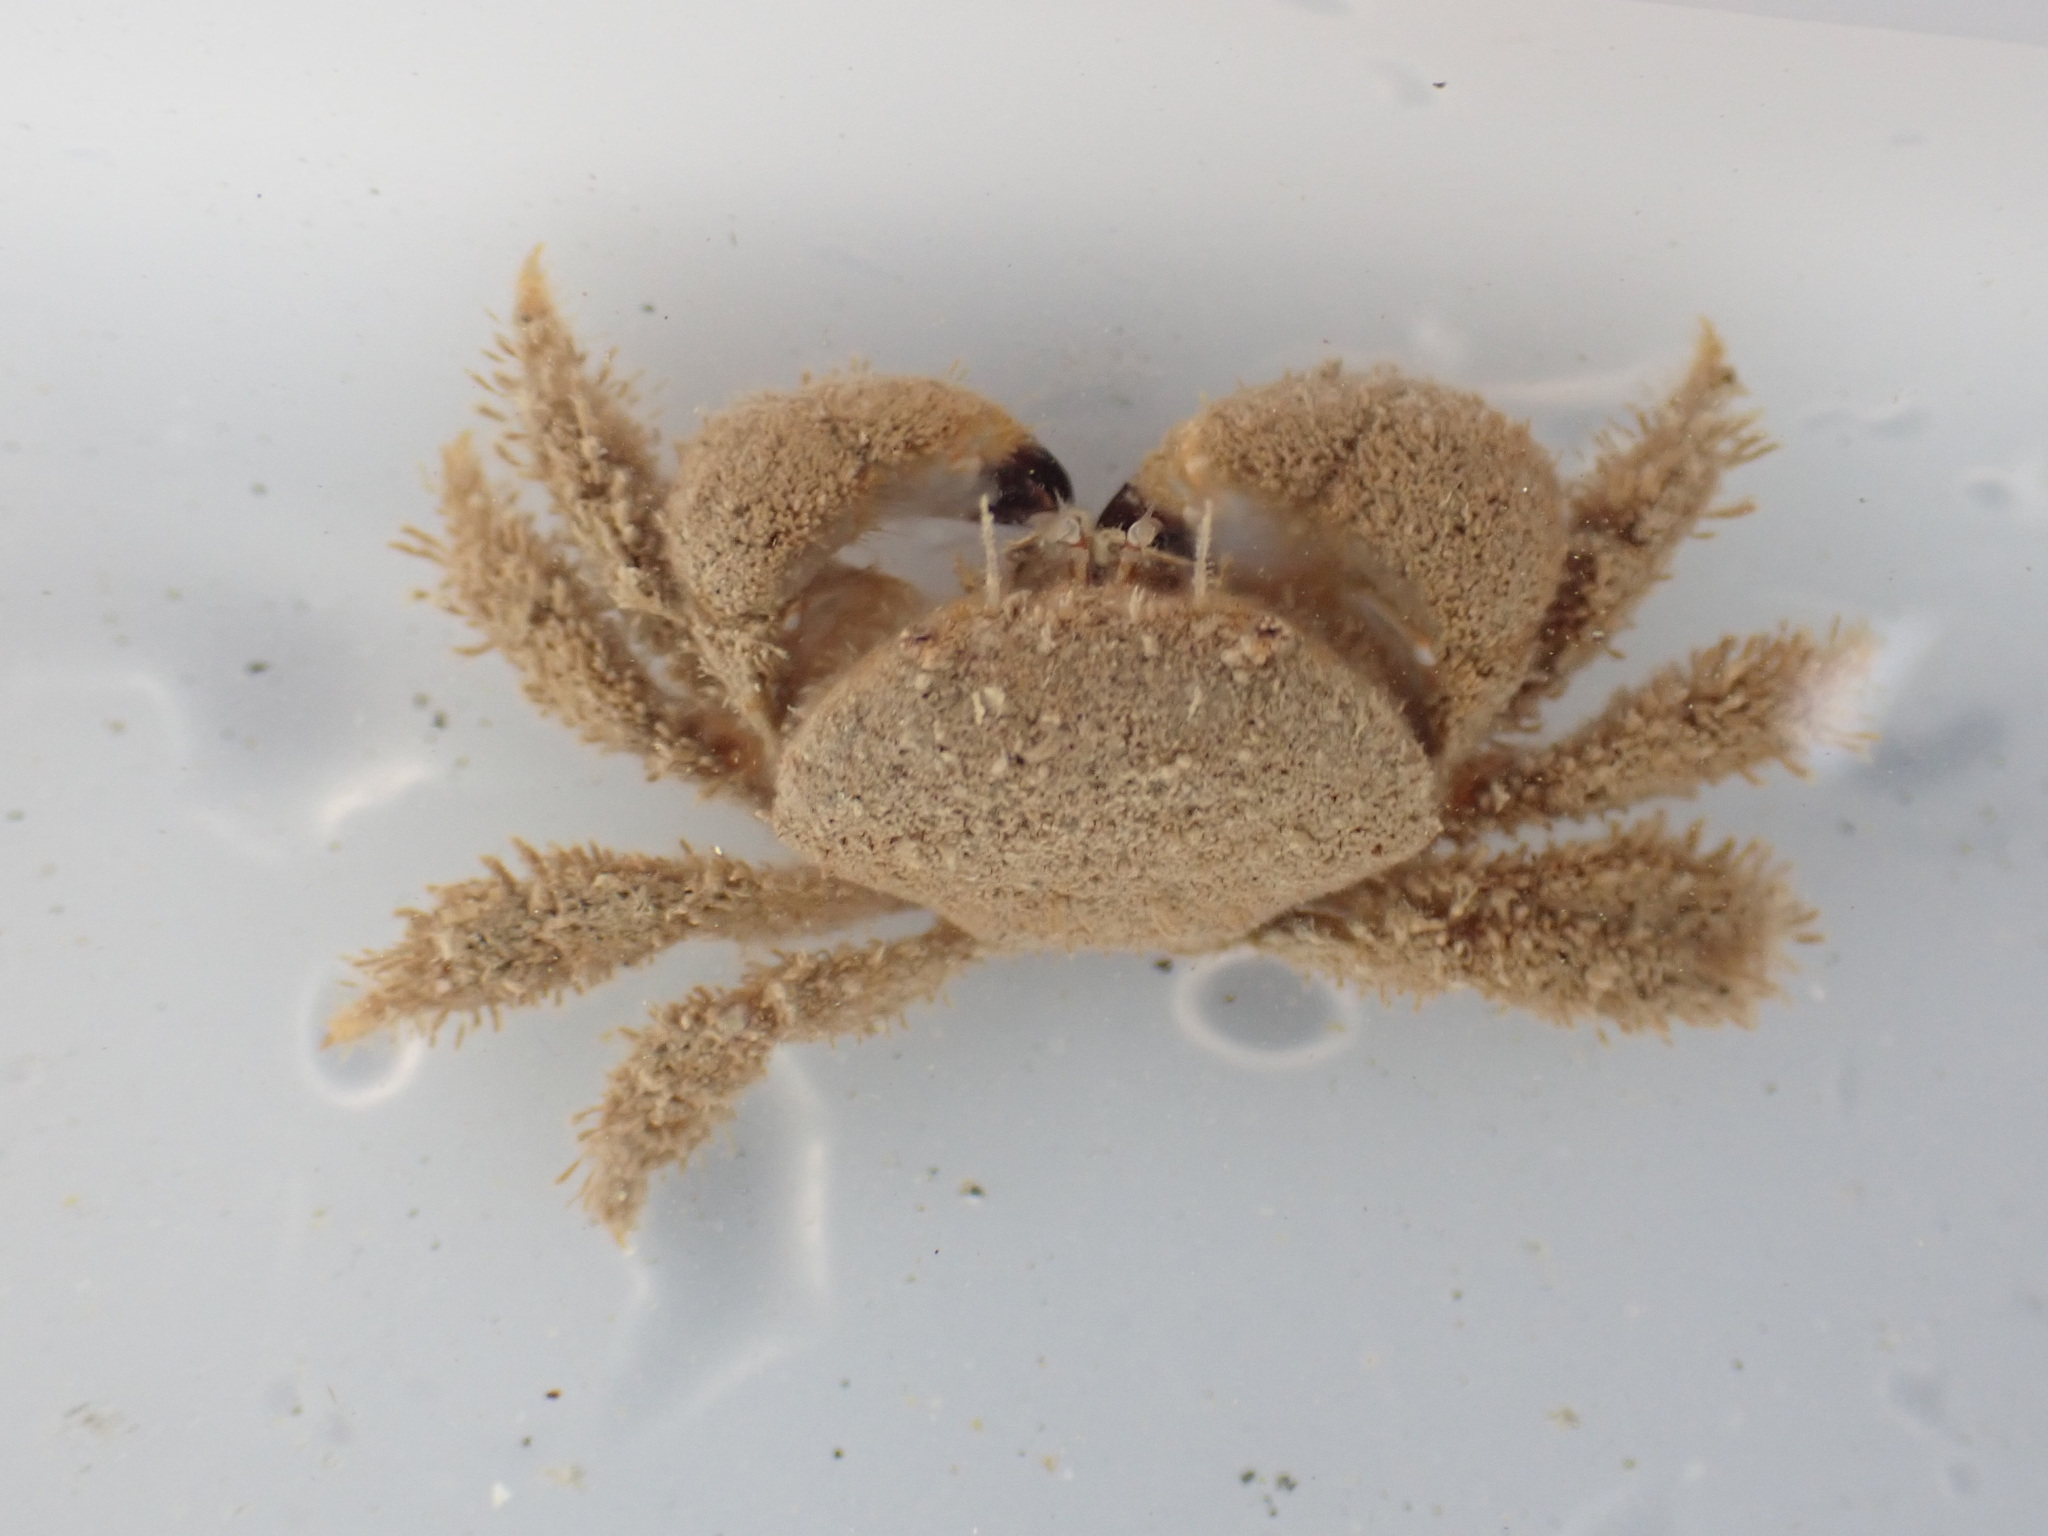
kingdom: Animalia
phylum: Arthropoda
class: Malacostraca
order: Decapoda
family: Pilumnidae
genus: Pilumnus
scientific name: Pilumnus lumpinus
